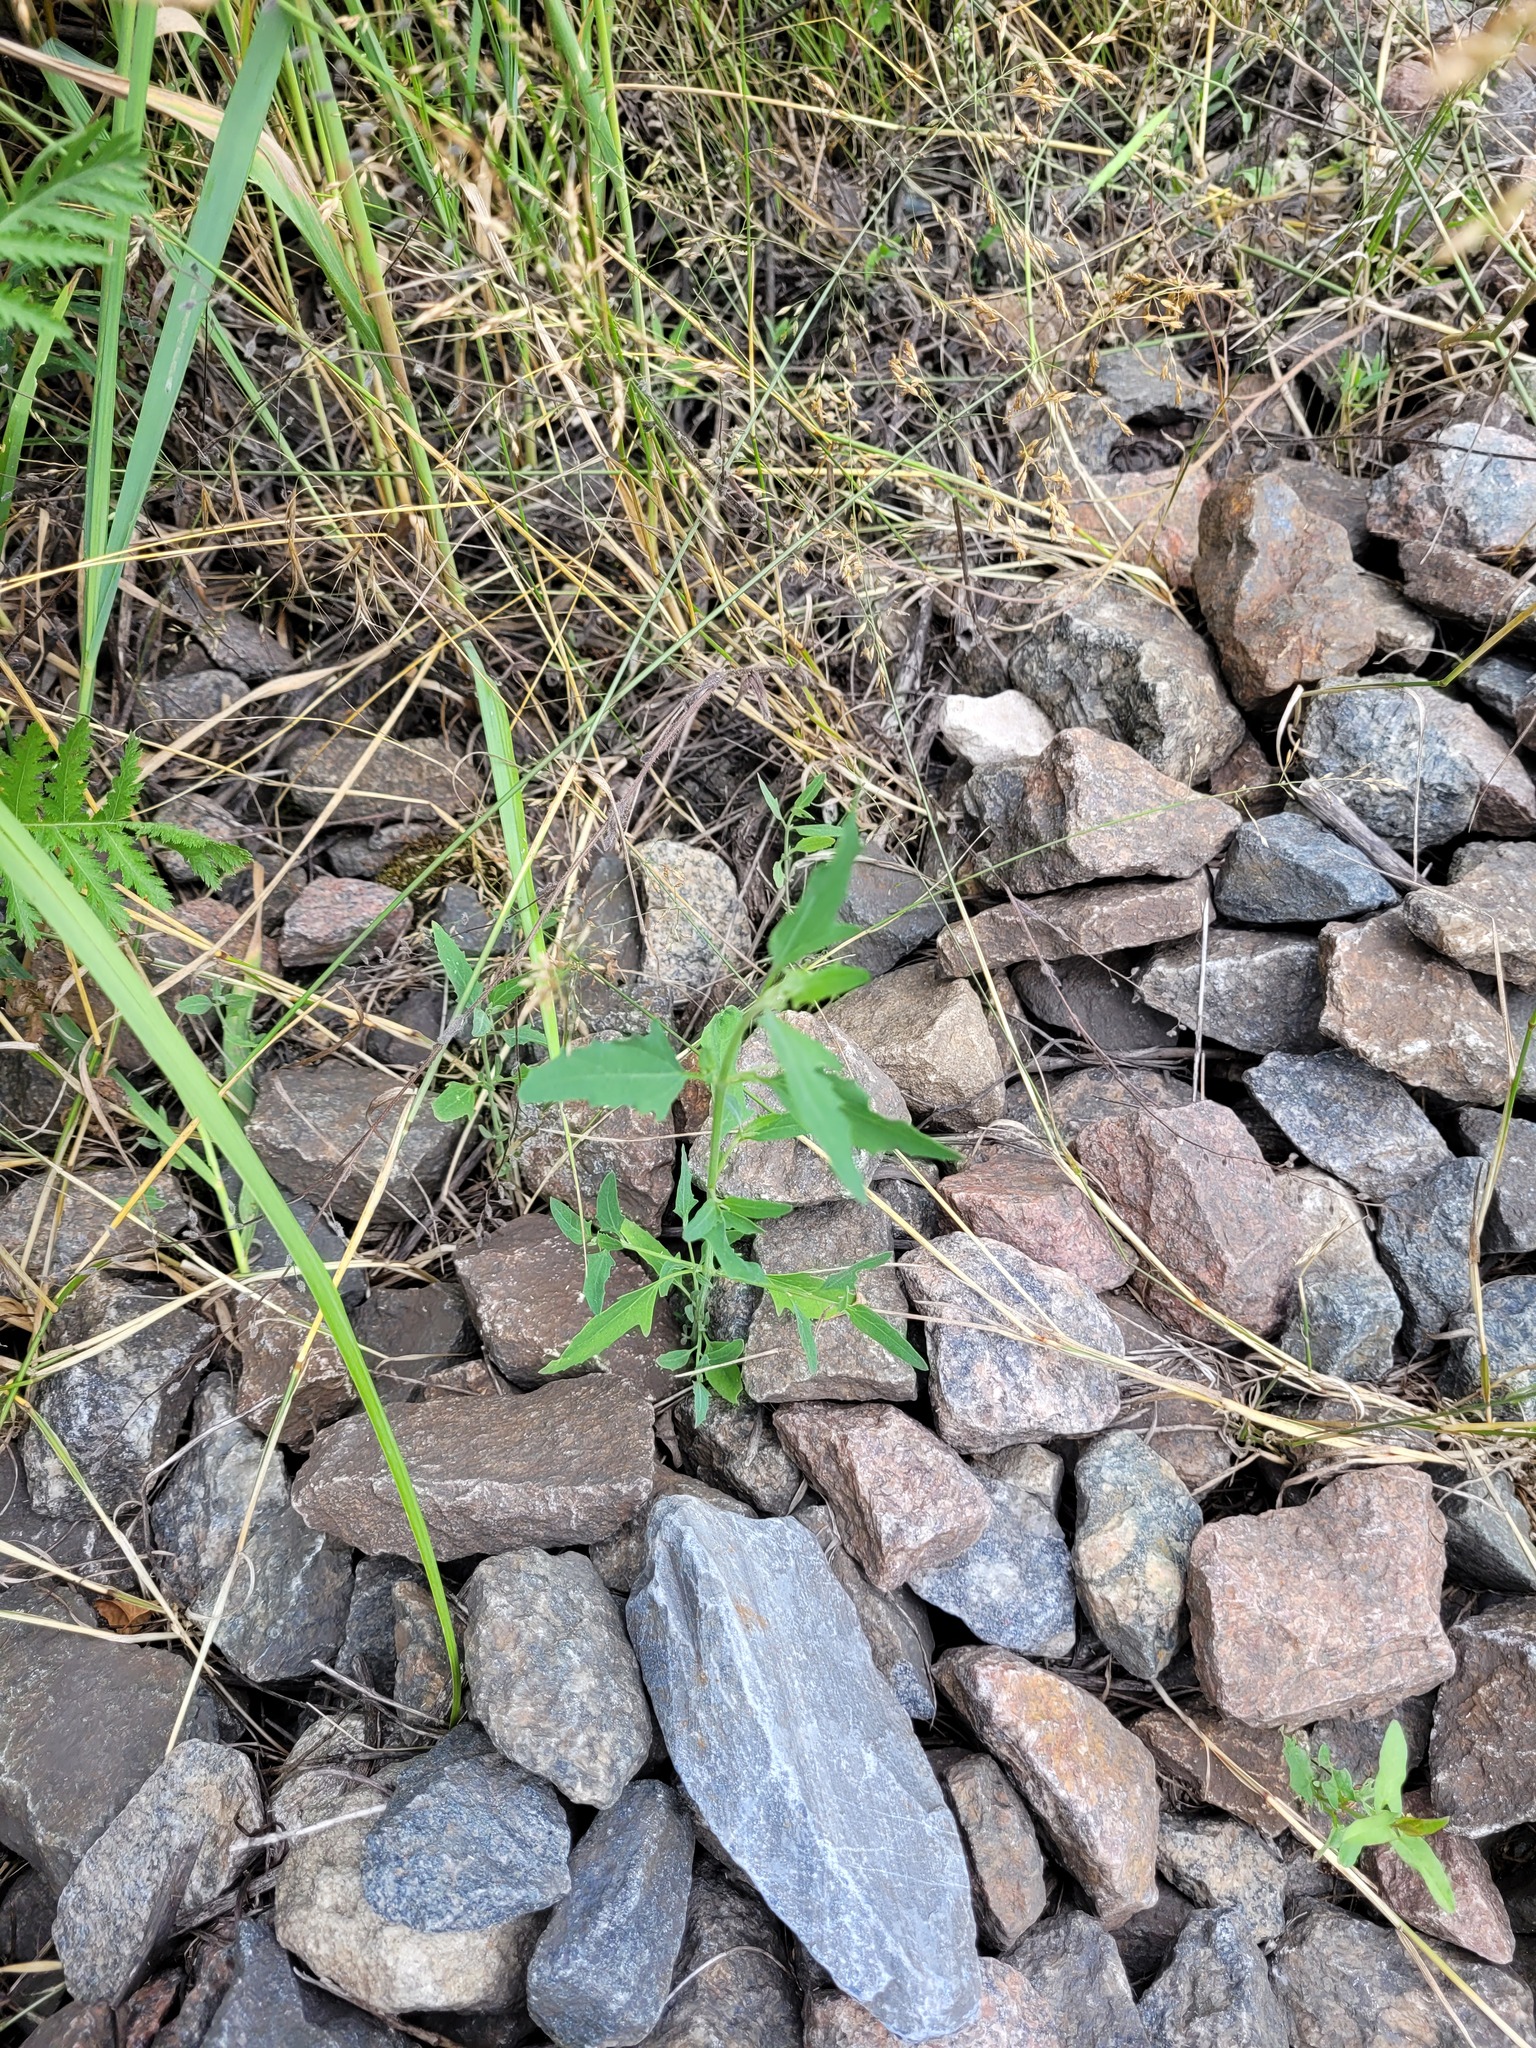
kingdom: Plantae
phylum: Tracheophyta
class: Magnoliopsida
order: Caryophyllales
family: Amaranthaceae
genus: Atriplex
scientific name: Atriplex patula
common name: Common orache
